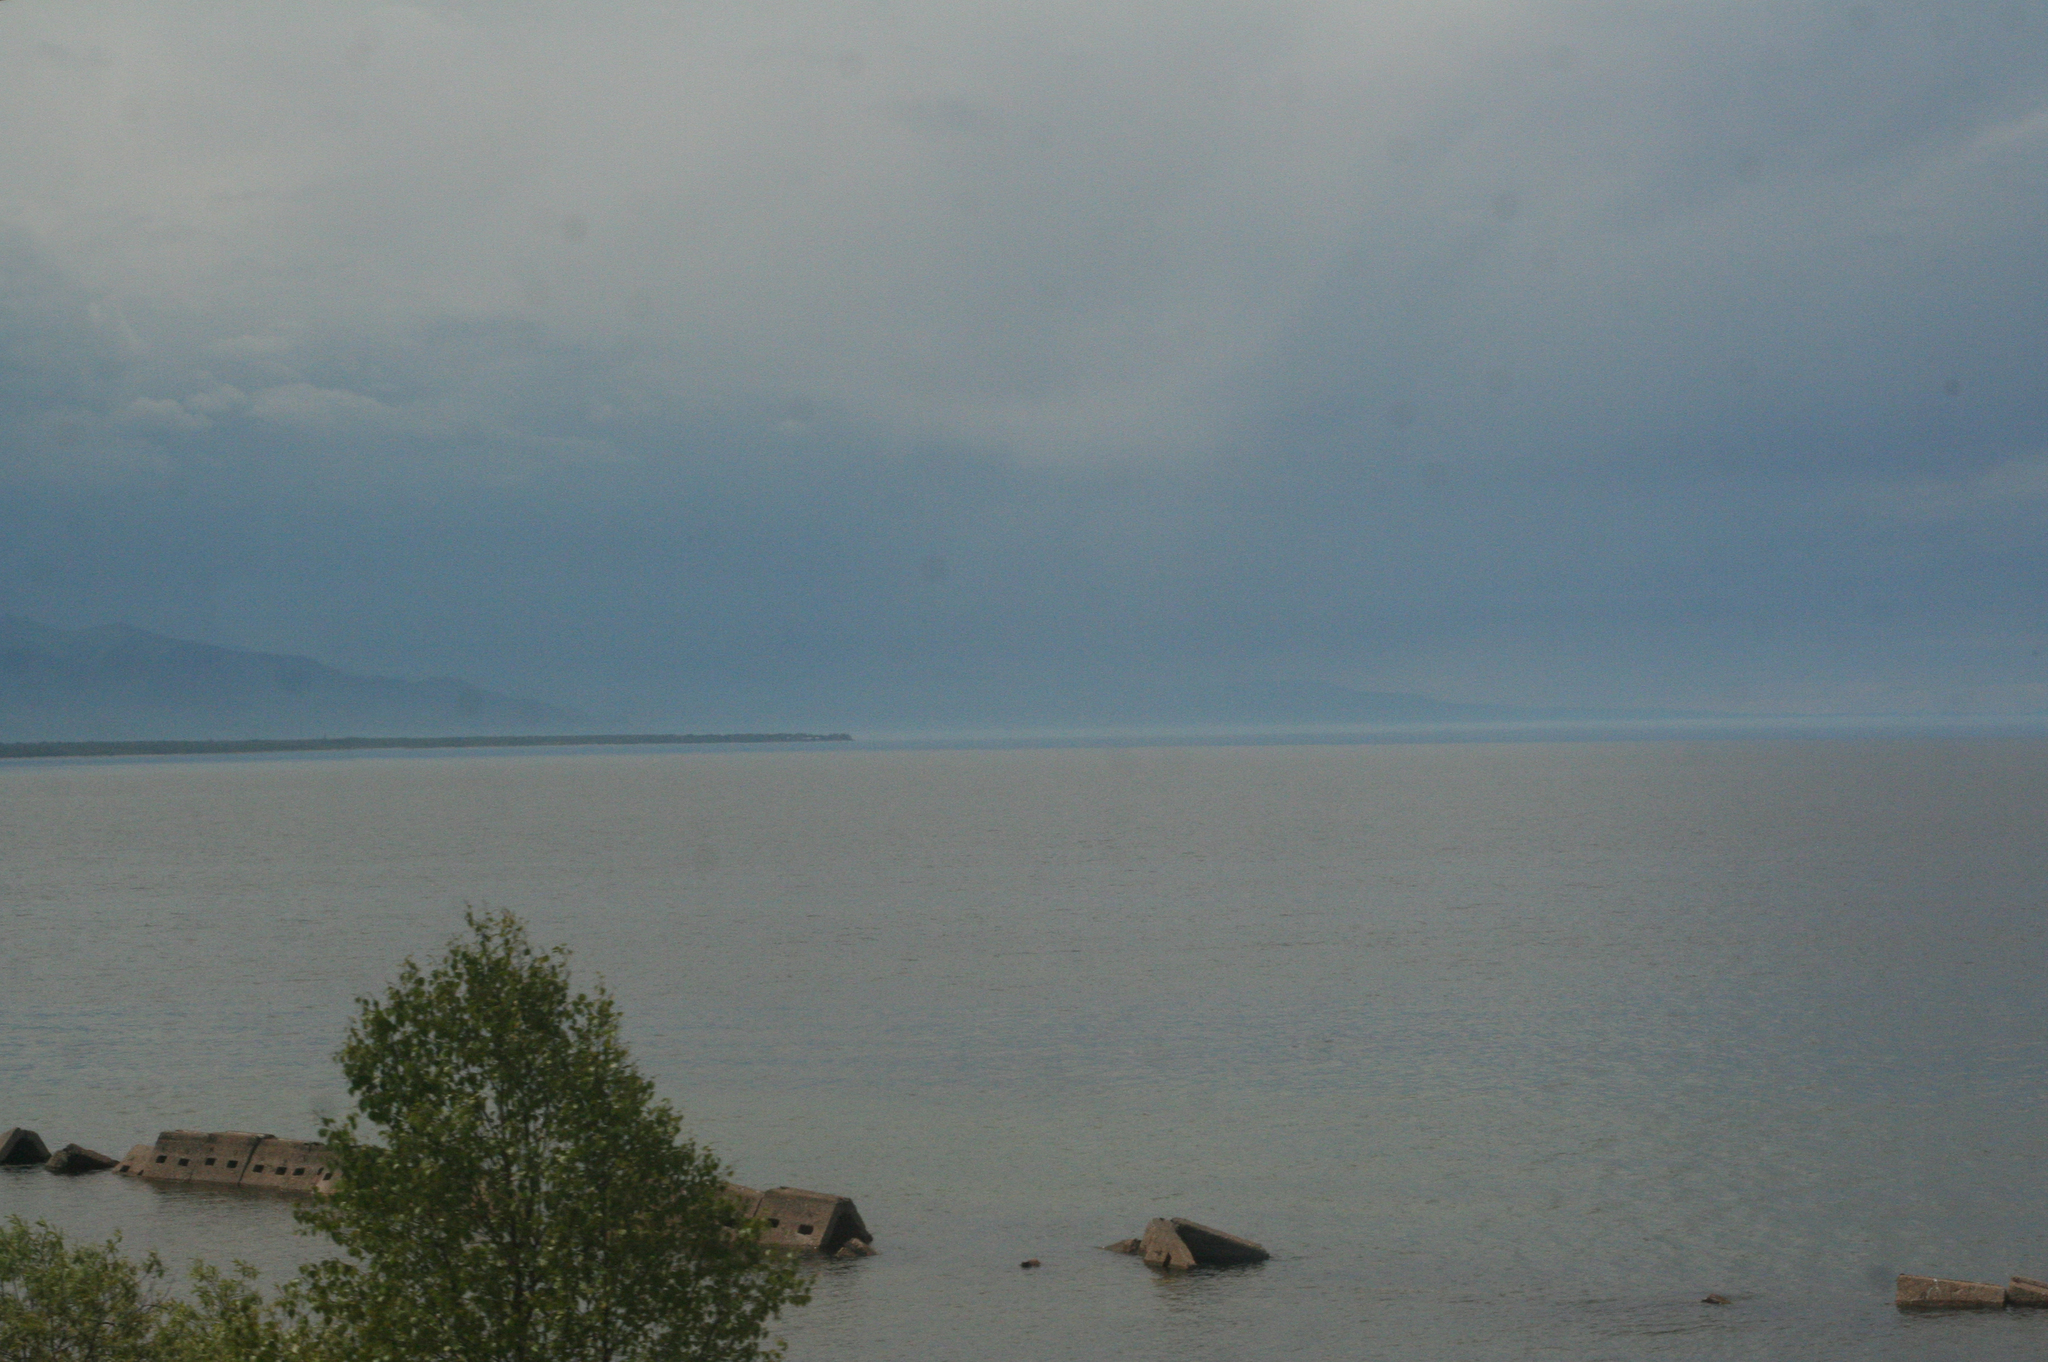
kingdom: Plantae
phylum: Tracheophyta
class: Magnoliopsida
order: Fagales
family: Betulaceae
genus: Betula
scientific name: Betula pendula
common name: Silver birch
